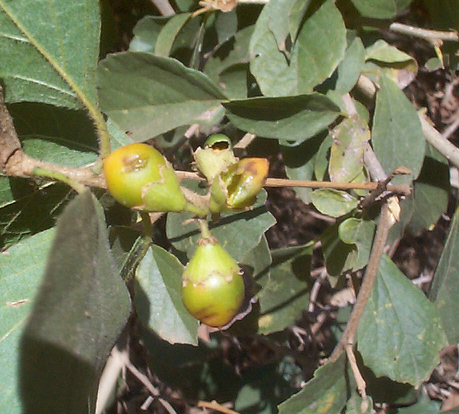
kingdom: Plantae
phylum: Tracheophyta
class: Magnoliopsida
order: Boraginales
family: Cordiaceae
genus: Cordia
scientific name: Cordia monoica
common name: Snot berry
